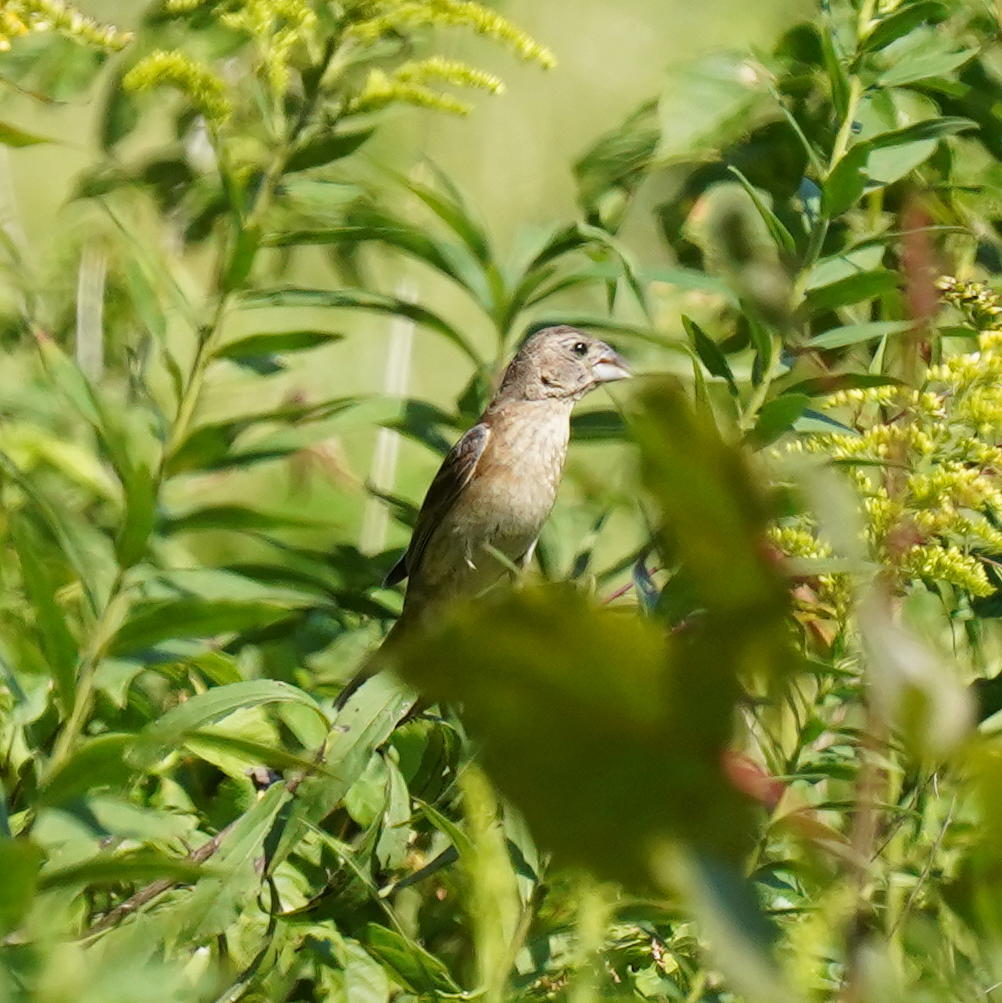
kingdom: Animalia
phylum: Chordata
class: Aves
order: Passeriformes
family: Cardinalidae
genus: Passerina
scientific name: Passerina caerulea
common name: Blue grosbeak
